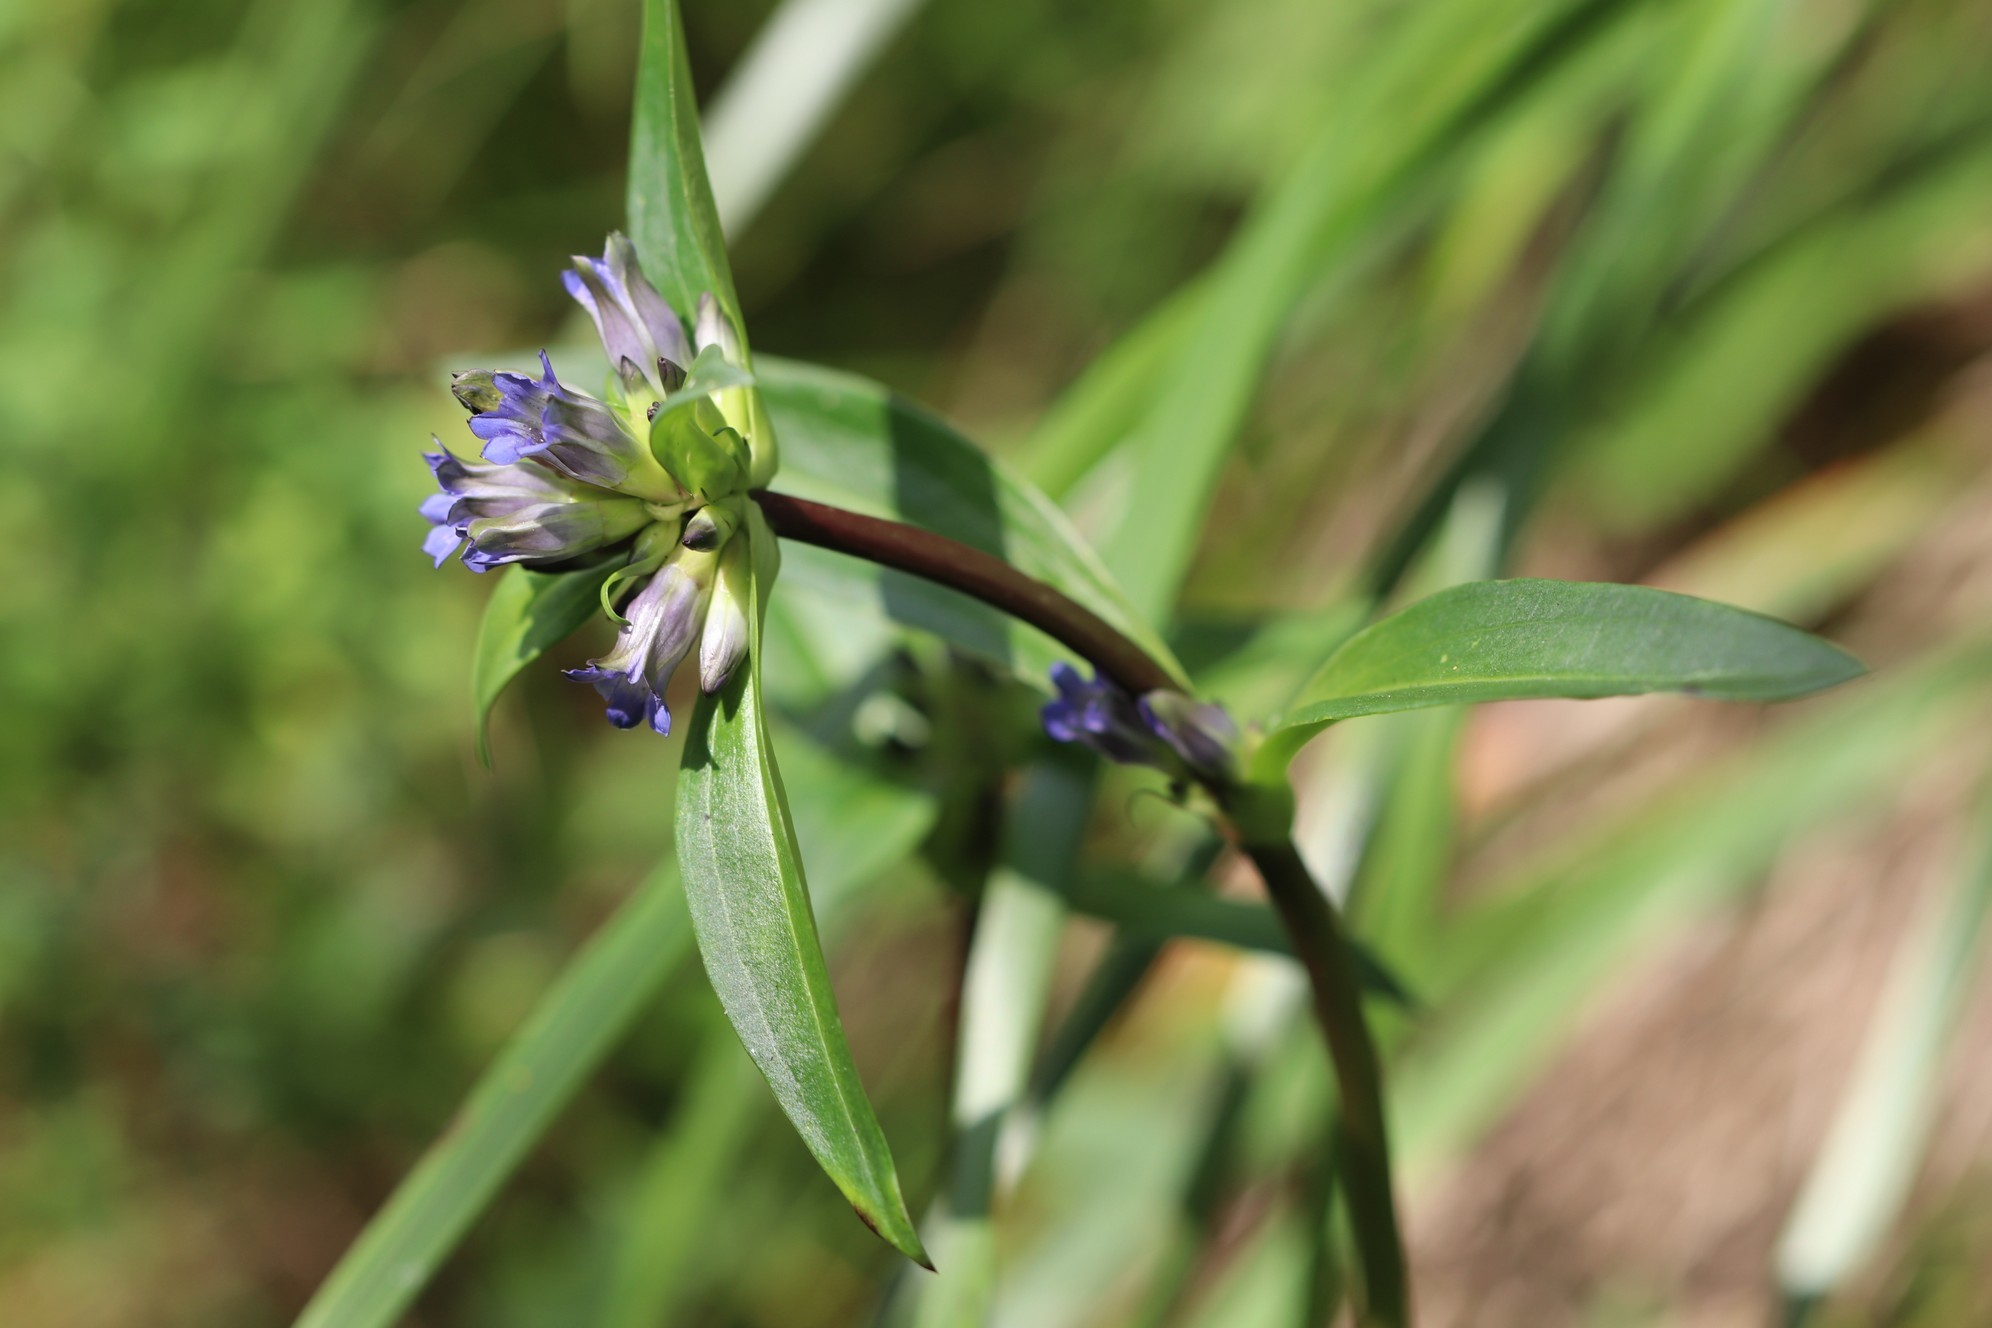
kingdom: Plantae
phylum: Tracheophyta
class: Magnoliopsida
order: Gentianales
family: Gentianaceae
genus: Gentiana
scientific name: Gentiana macrophylla
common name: Large-leaf gentian
